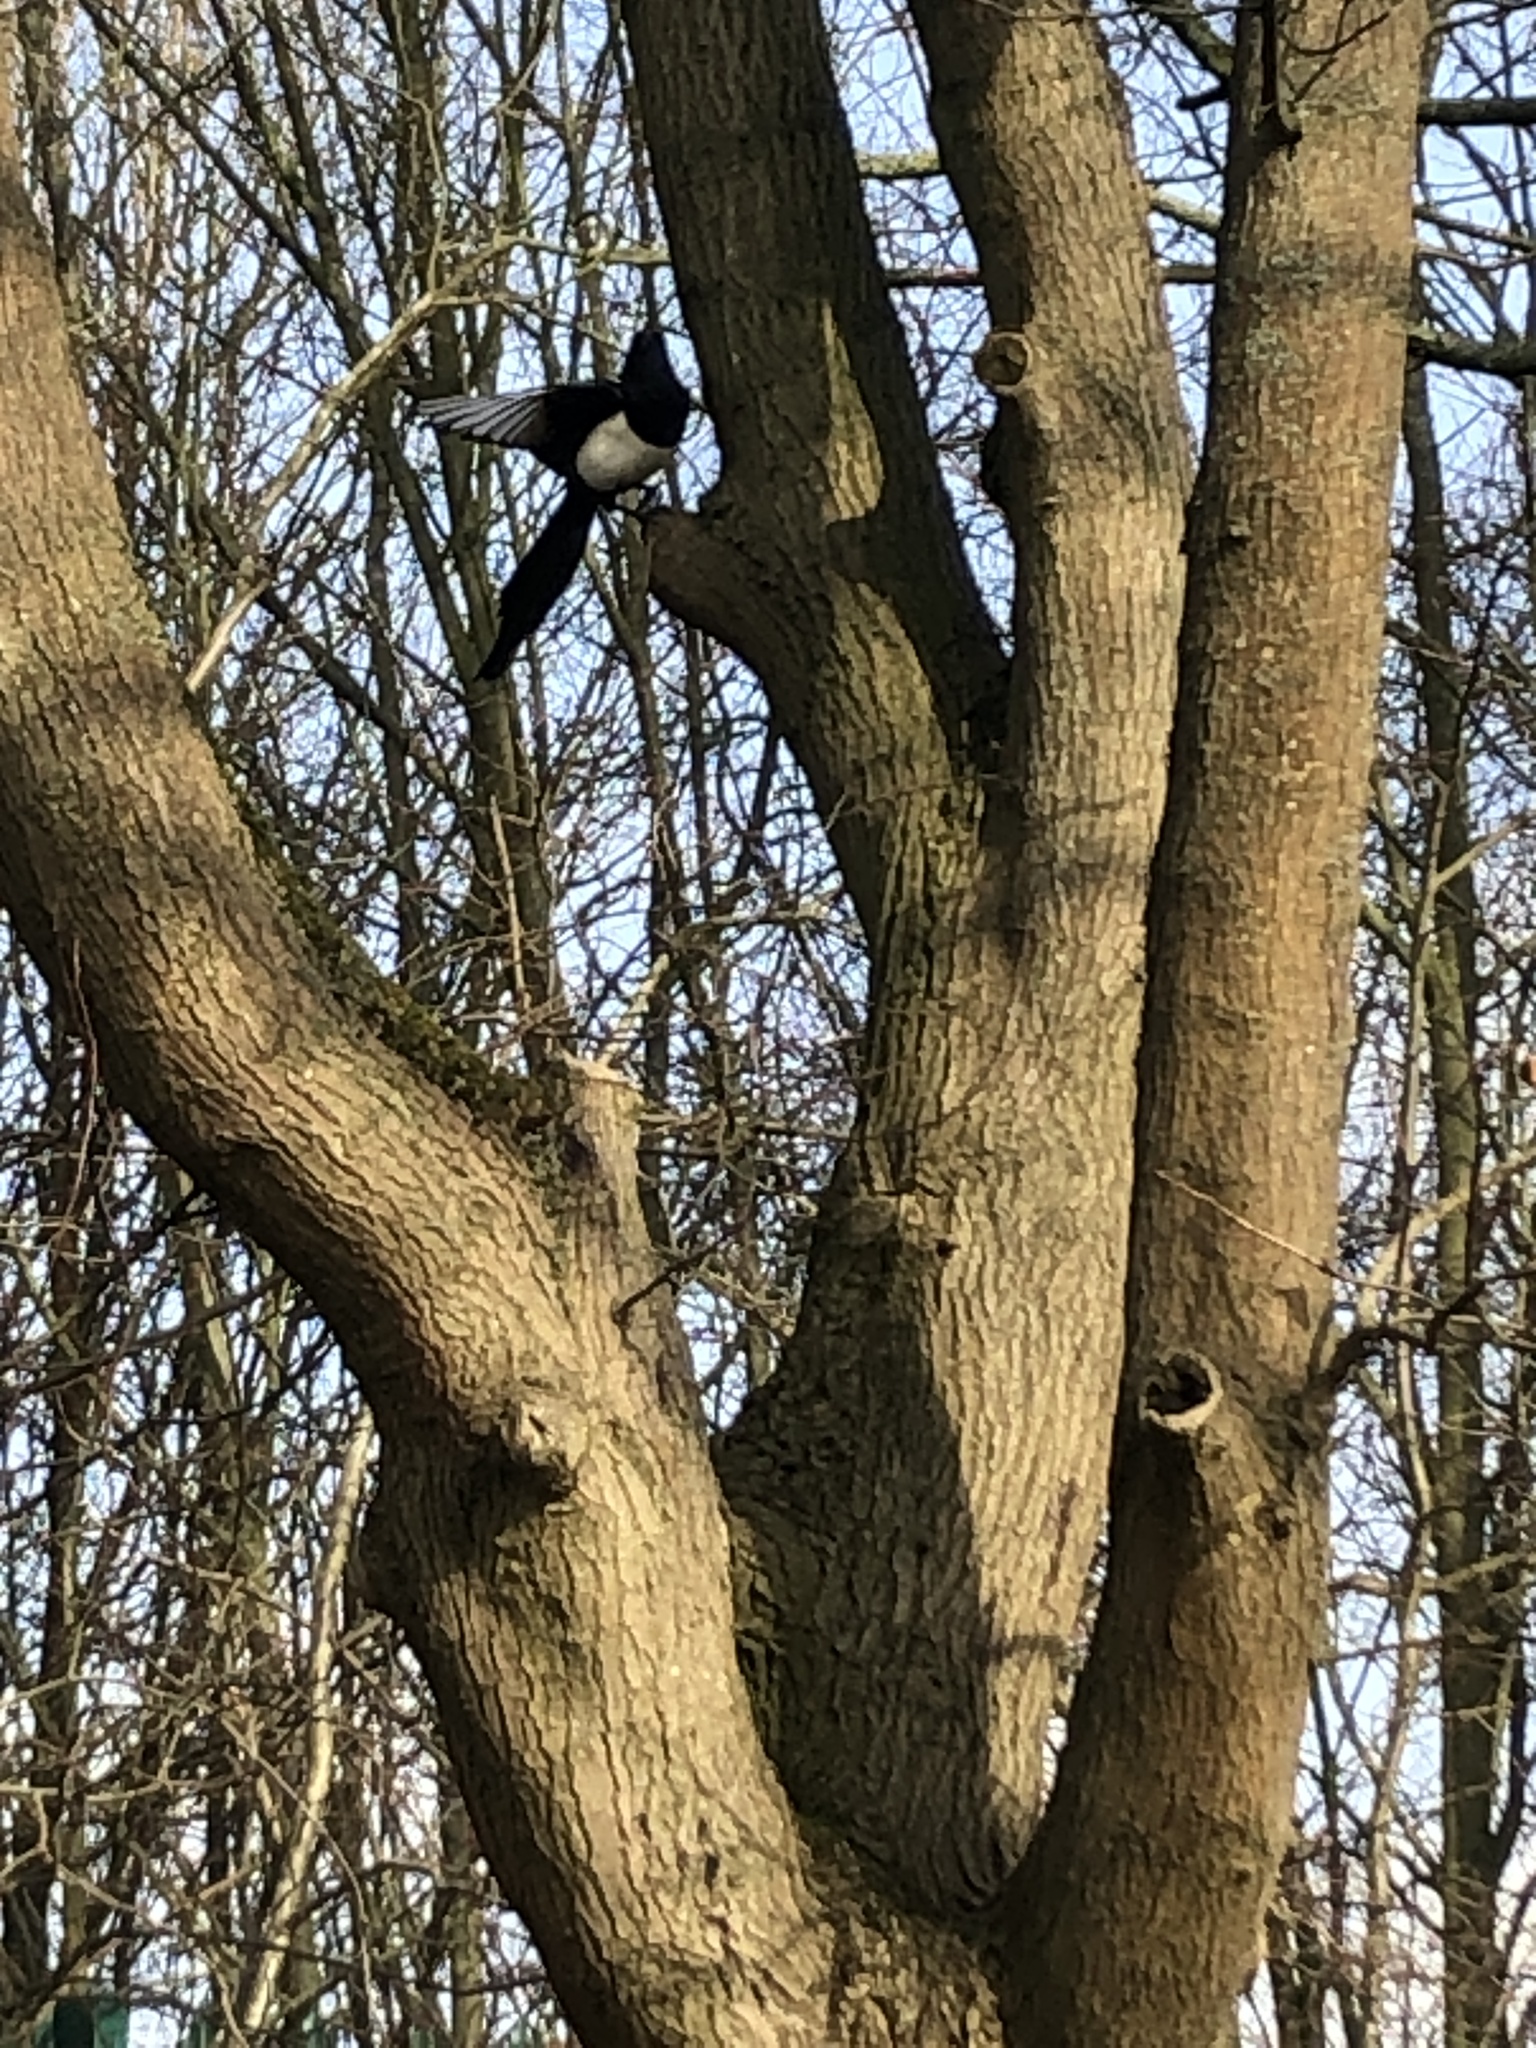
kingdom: Animalia
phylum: Chordata
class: Aves
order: Passeriformes
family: Corvidae
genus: Pica
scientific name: Pica pica
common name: Eurasian magpie
